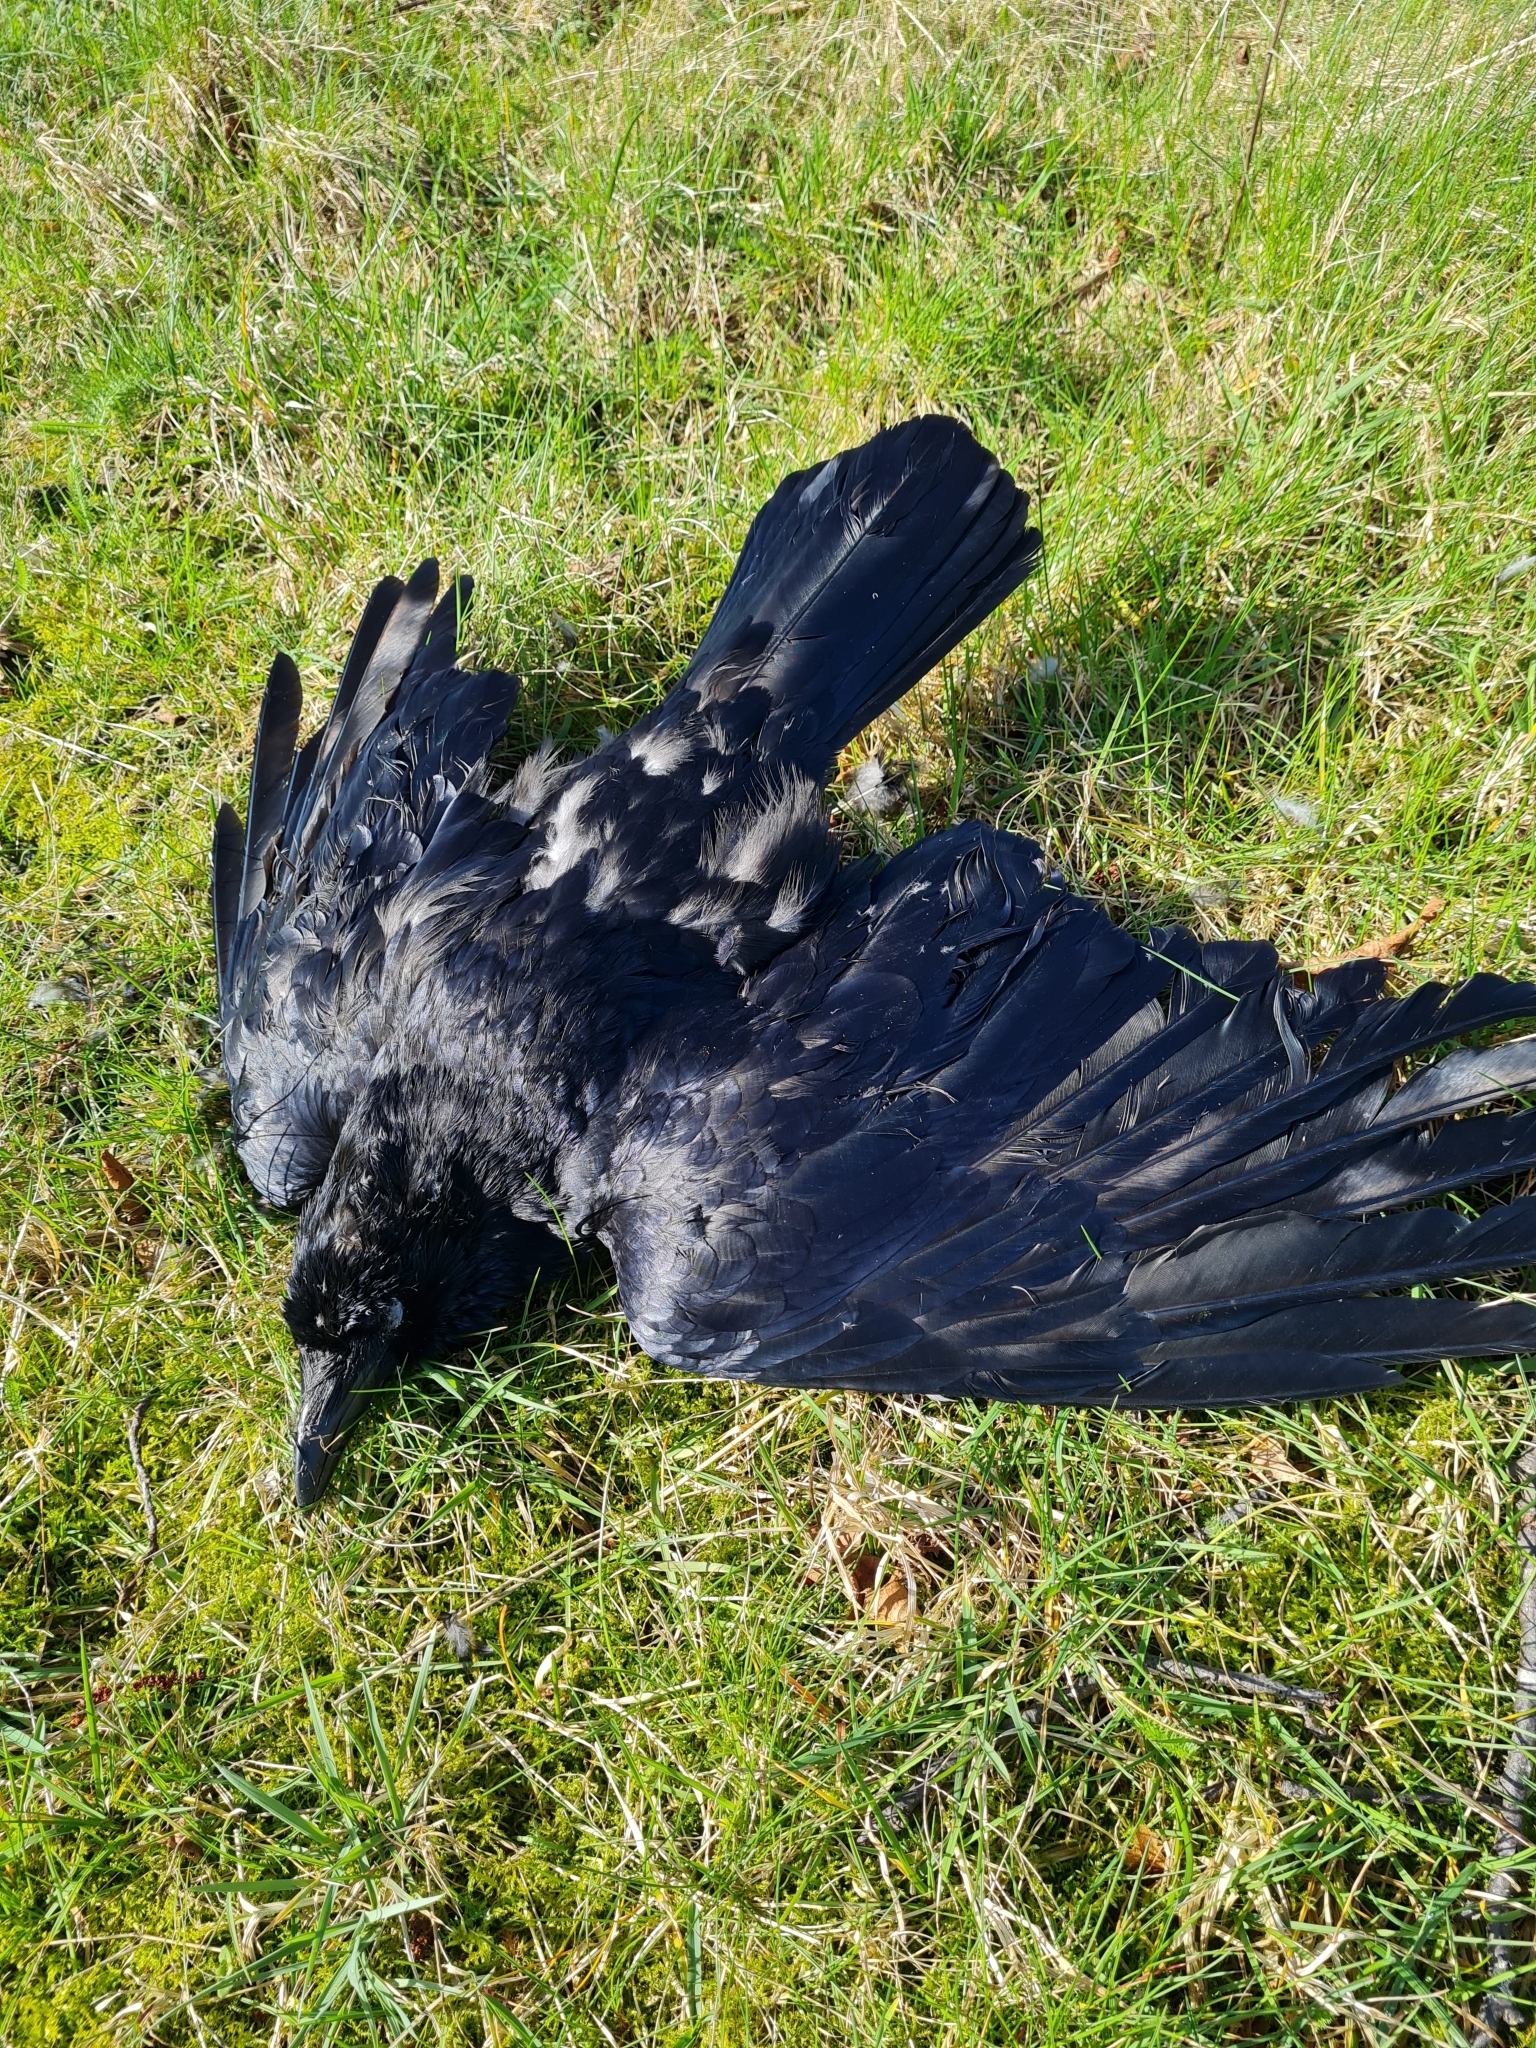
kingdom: Animalia
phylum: Chordata
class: Aves
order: Passeriformes
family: Corvidae
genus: Corvus
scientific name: Corvus corax
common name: Common raven
